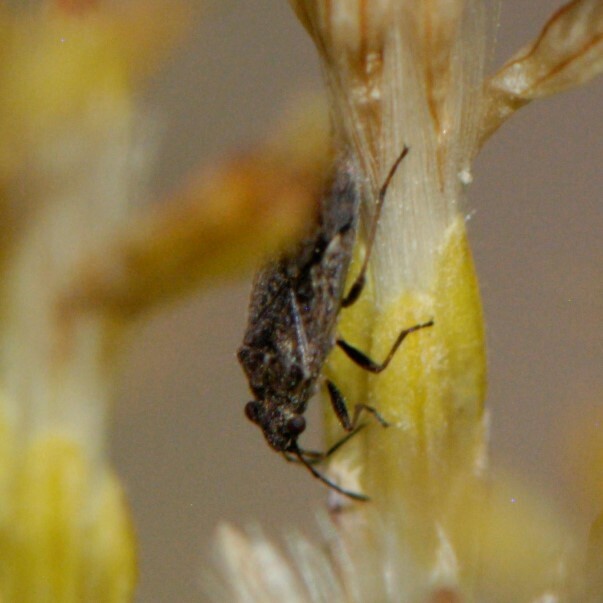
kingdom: Animalia
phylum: Arthropoda
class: Insecta
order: Hemiptera
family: Lygaeidae
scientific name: Lygaeidae
